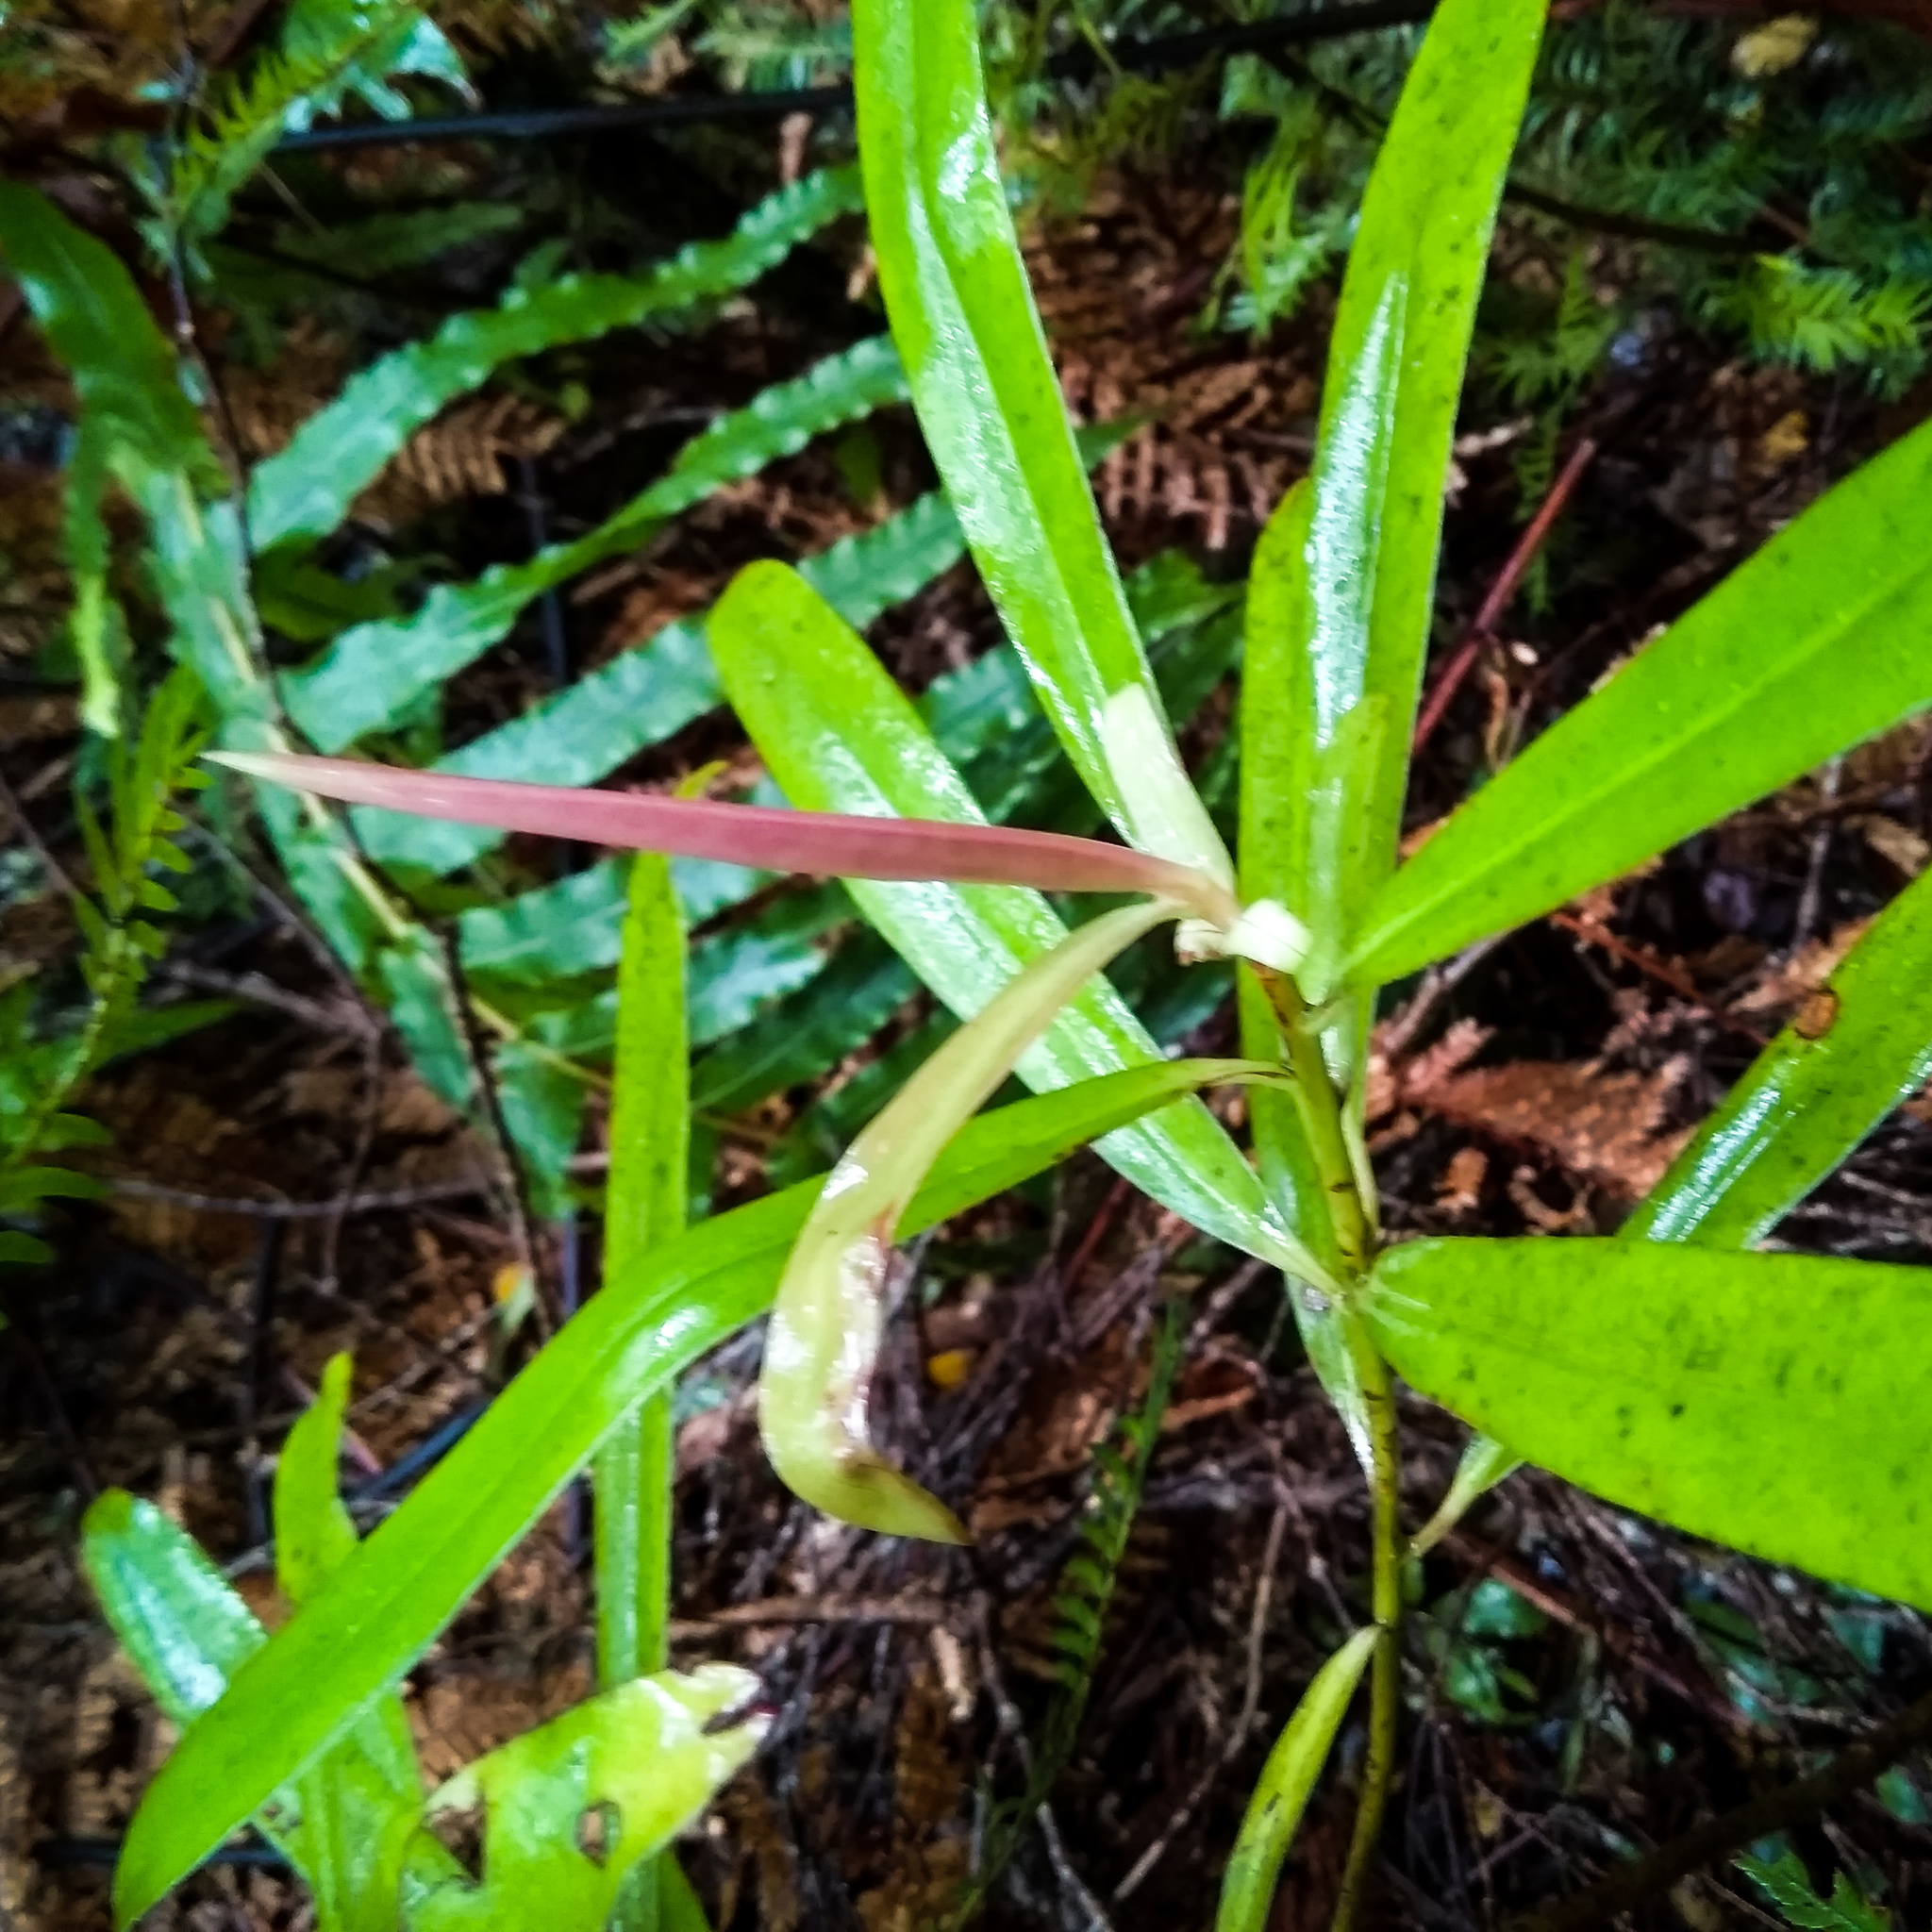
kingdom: Plantae
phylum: Tracheophyta
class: Magnoliopsida
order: Ericales
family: Primulaceae
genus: Myrsine
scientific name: Myrsine salicina
